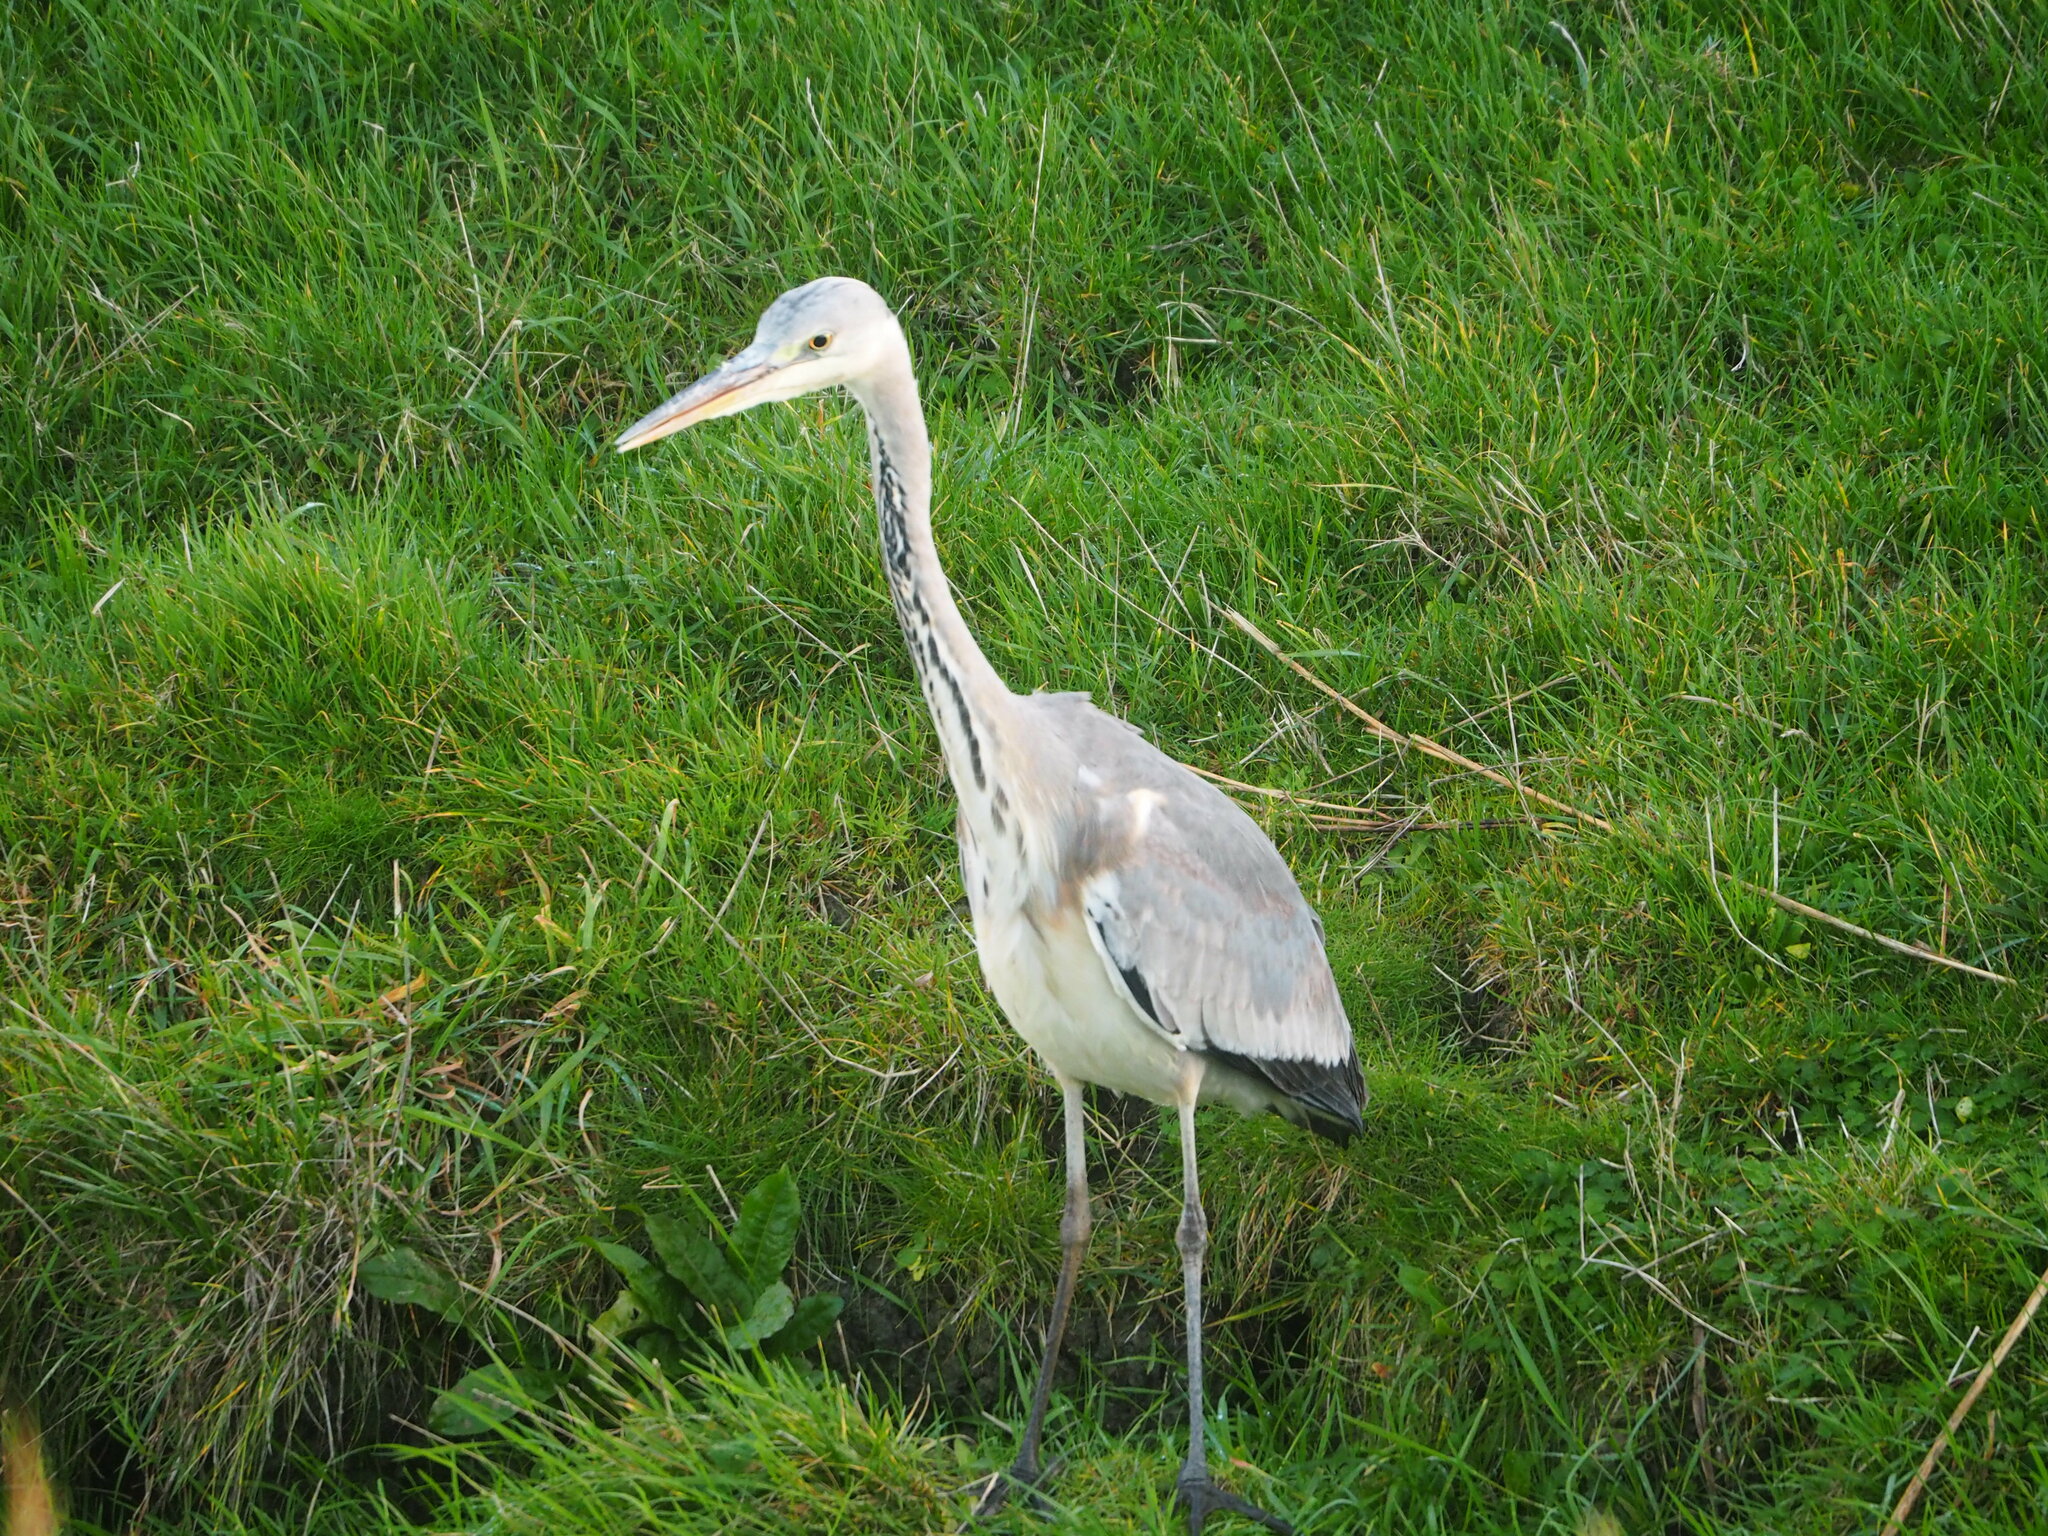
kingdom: Animalia
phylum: Chordata
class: Aves
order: Pelecaniformes
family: Ardeidae
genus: Ardea
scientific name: Ardea cinerea
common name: Grey heron
